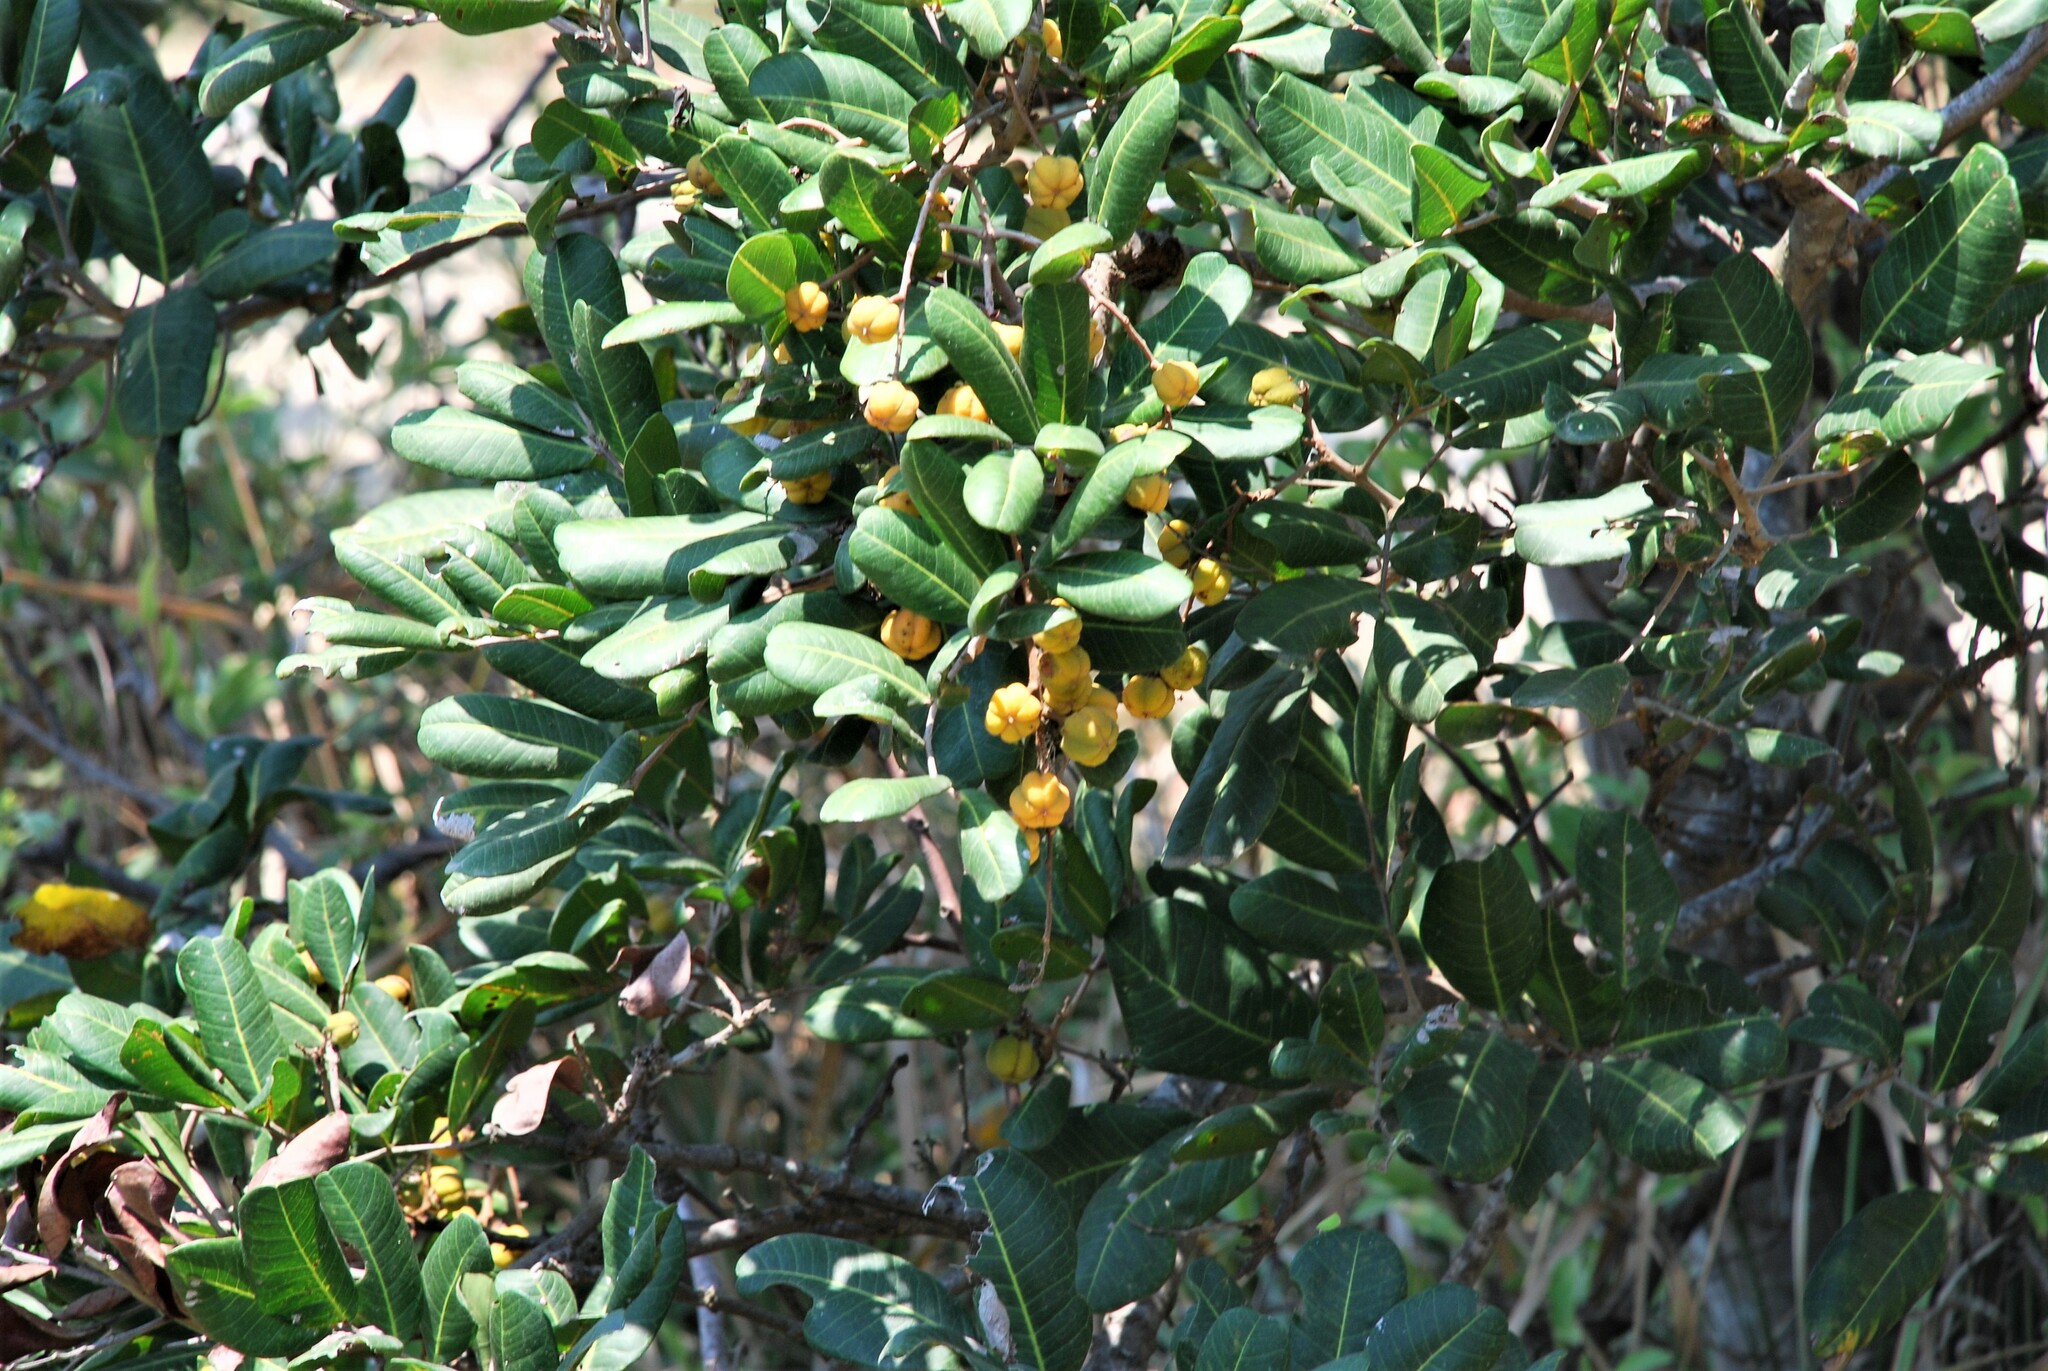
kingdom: Plantae
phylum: Tracheophyta
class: Magnoliopsida
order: Sapindales
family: Sapindaceae
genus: Cupaniopsis
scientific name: Cupaniopsis anacardioides
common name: Carrotwood
